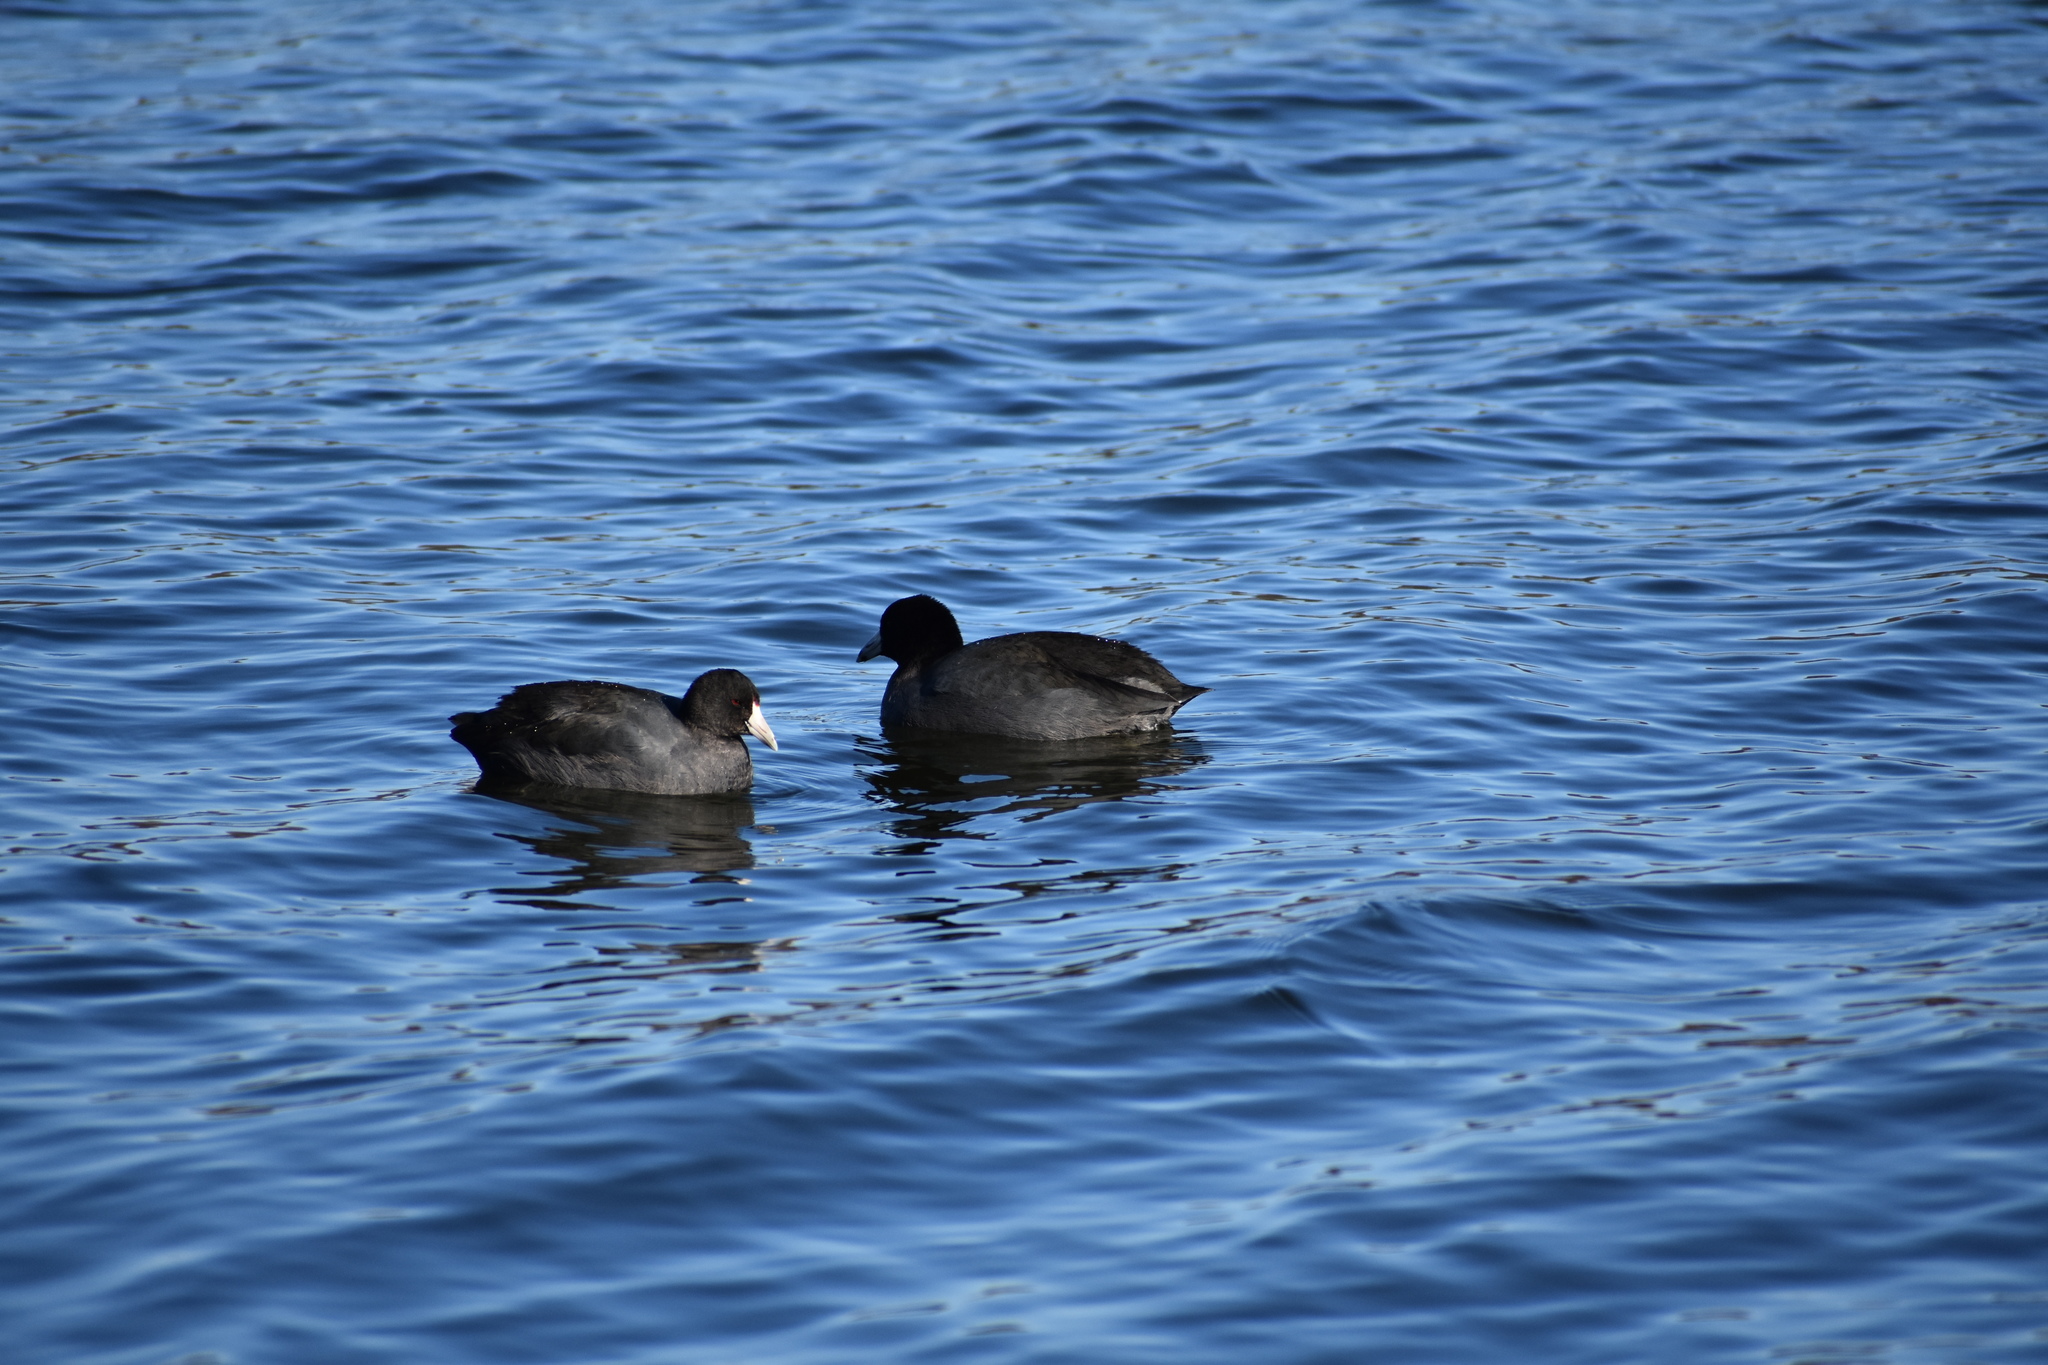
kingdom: Animalia
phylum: Chordata
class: Aves
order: Gruiformes
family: Rallidae
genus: Fulica
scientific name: Fulica americana
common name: American coot
